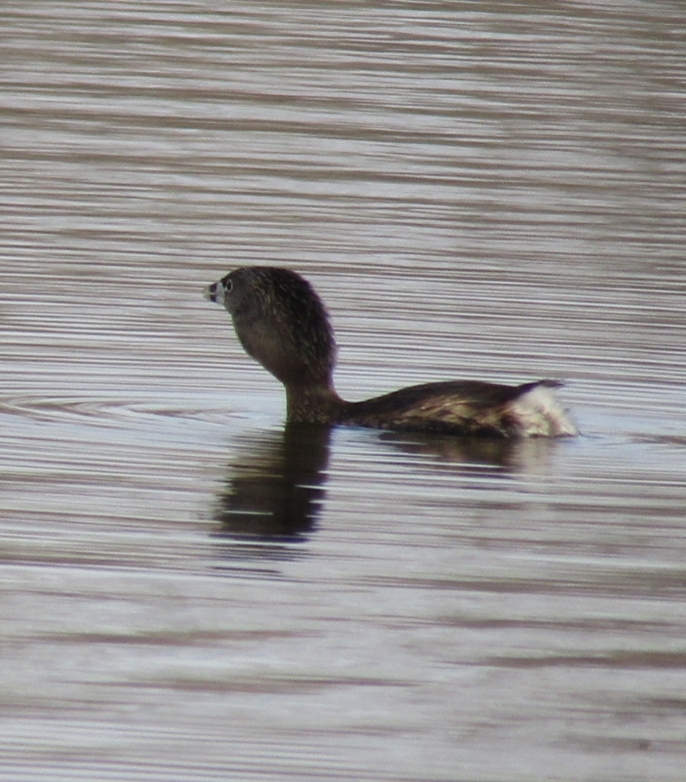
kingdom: Animalia
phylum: Chordata
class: Aves
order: Podicipediformes
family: Podicipedidae
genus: Podilymbus
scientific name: Podilymbus podiceps
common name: Pied-billed grebe
